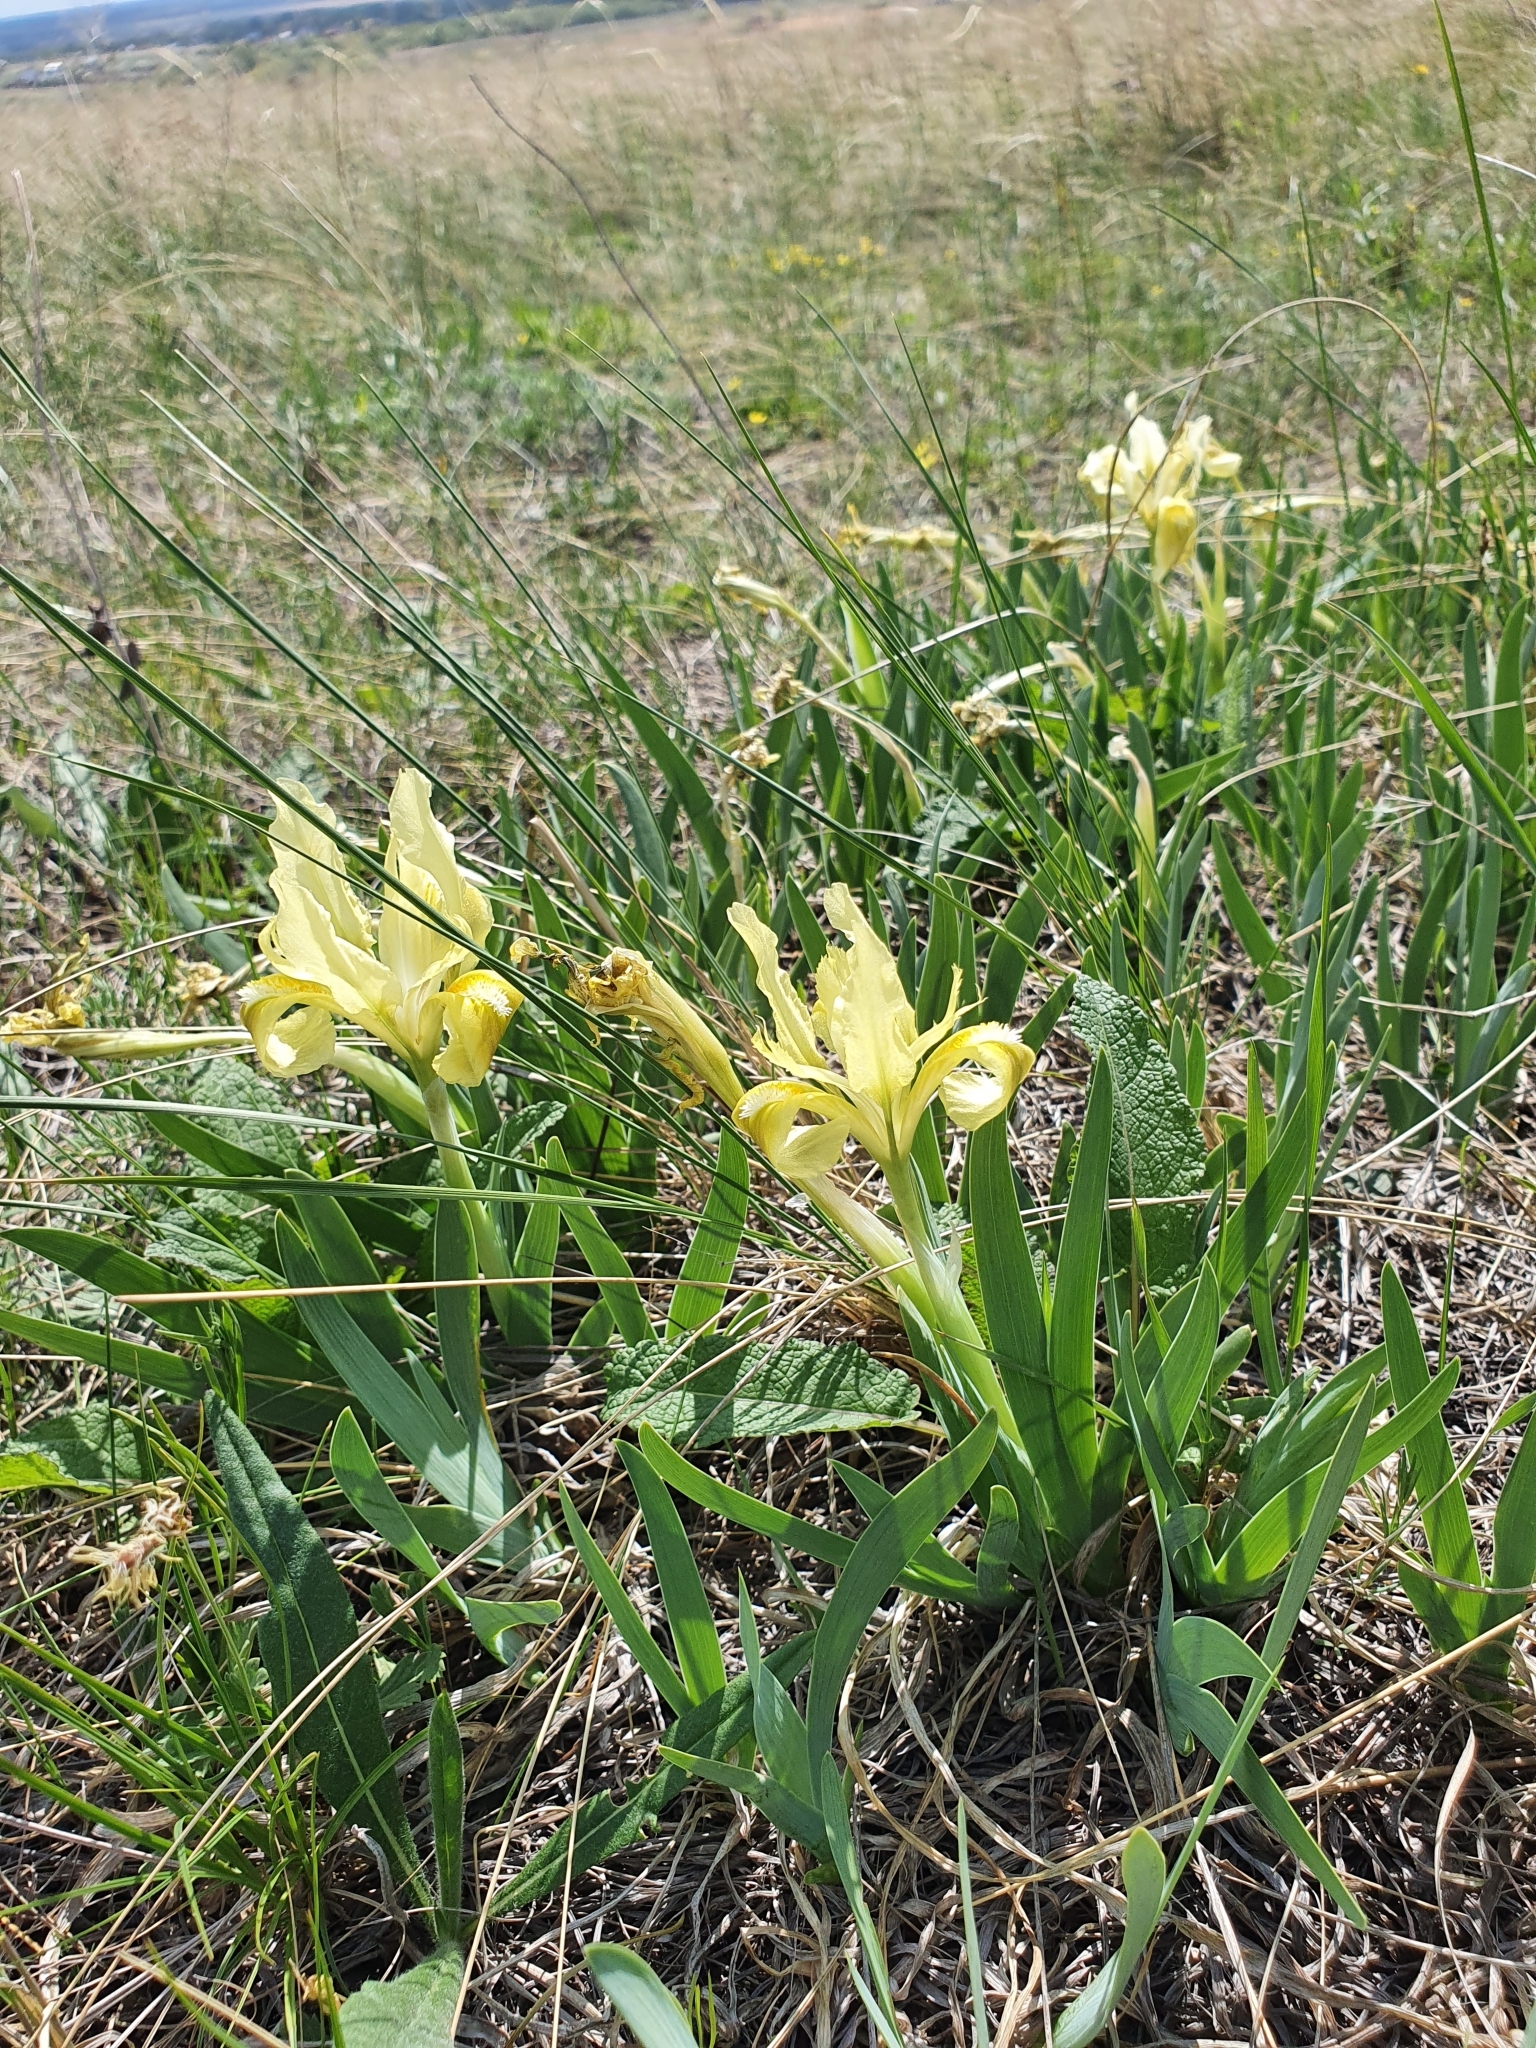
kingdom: Plantae
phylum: Tracheophyta
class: Liliopsida
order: Asparagales
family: Iridaceae
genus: Iris
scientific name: Iris pumila
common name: Dwarf iris
